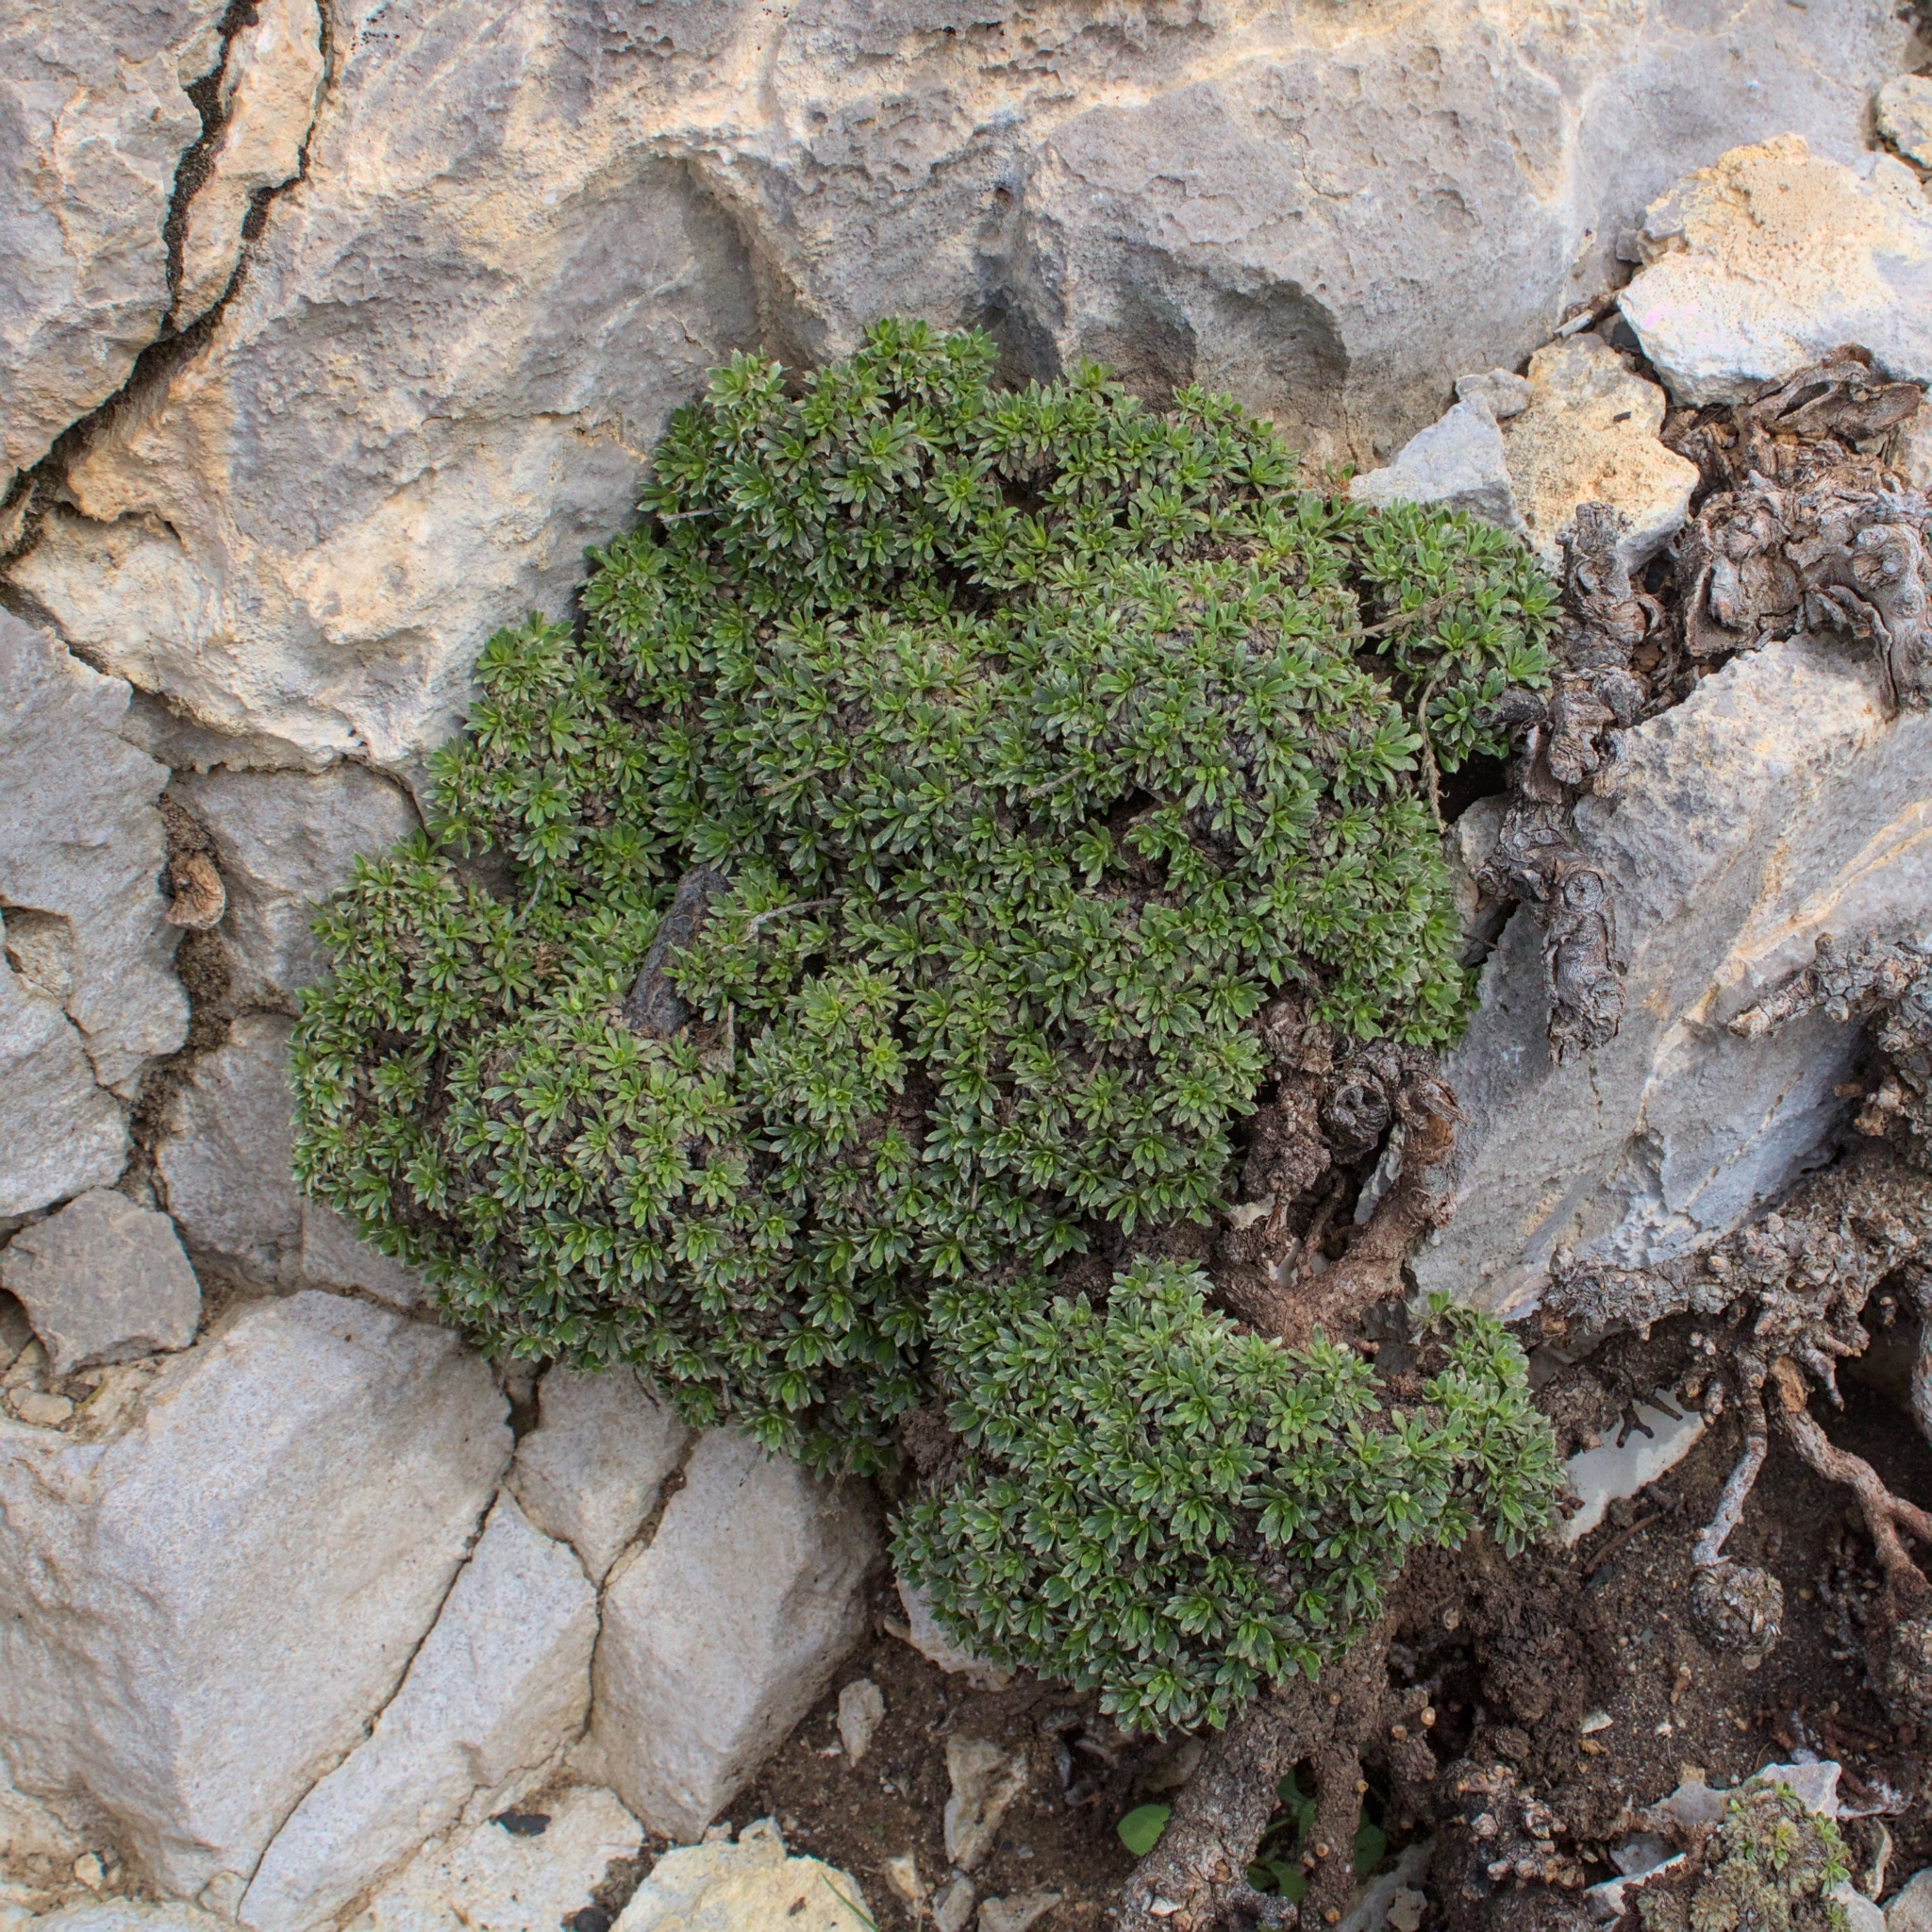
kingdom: Plantae
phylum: Tracheophyta
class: Magnoliopsida
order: Rosales
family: Rosaceae
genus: Petrophytum
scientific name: Petrophytum caespitosum
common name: Mat rockspirea
